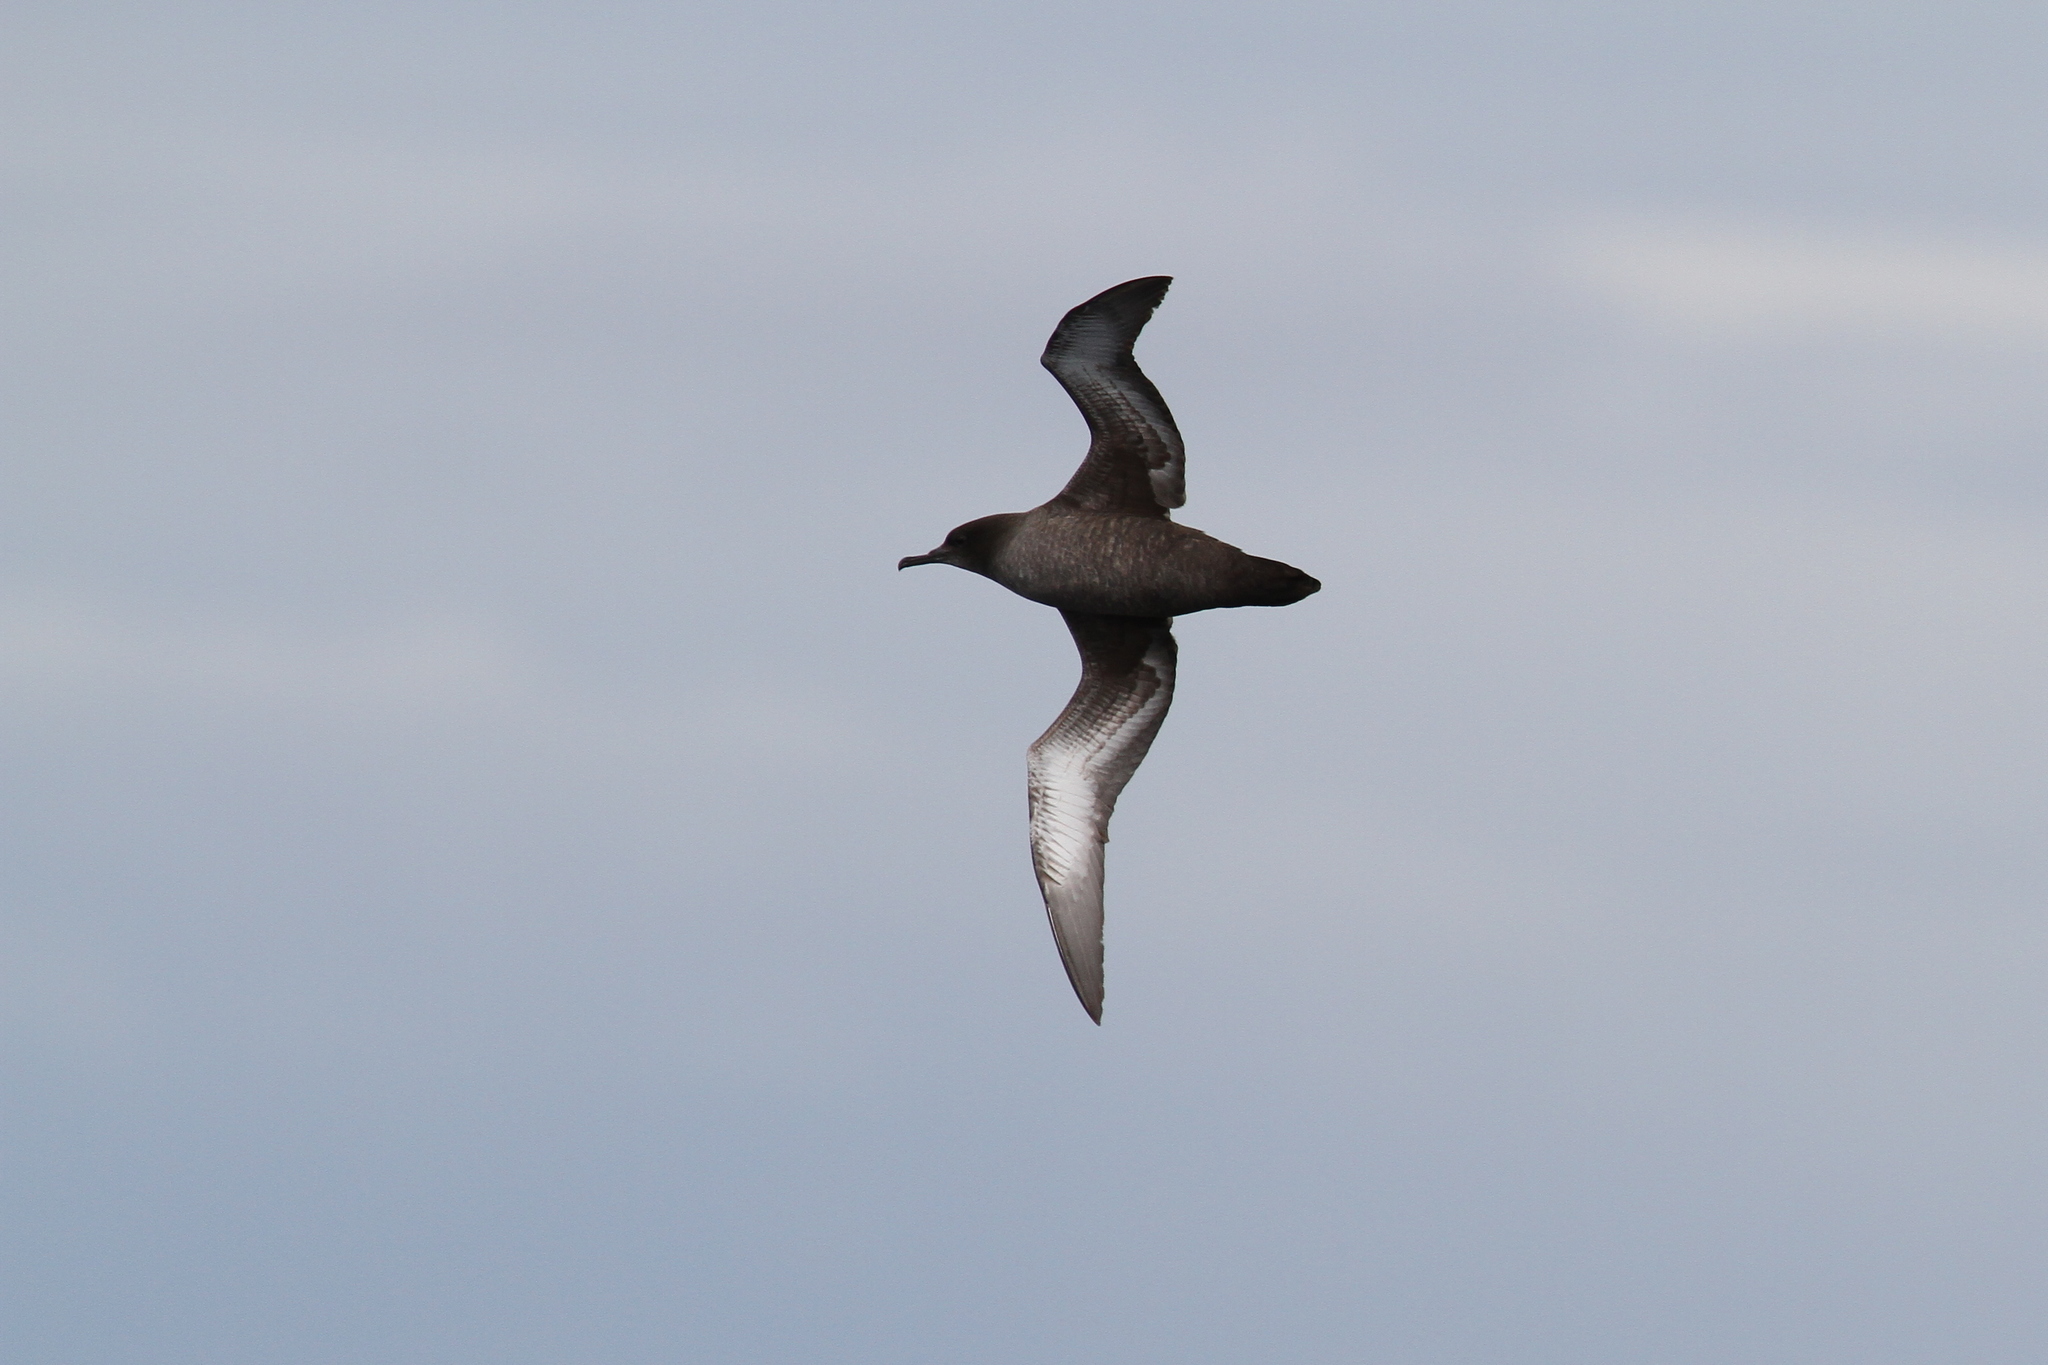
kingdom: Animalia
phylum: Chordata
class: Aves
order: Procellariiformes
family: Procellariidae
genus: Puffinus
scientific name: Puffinus griseus
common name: Sooty shearwater
